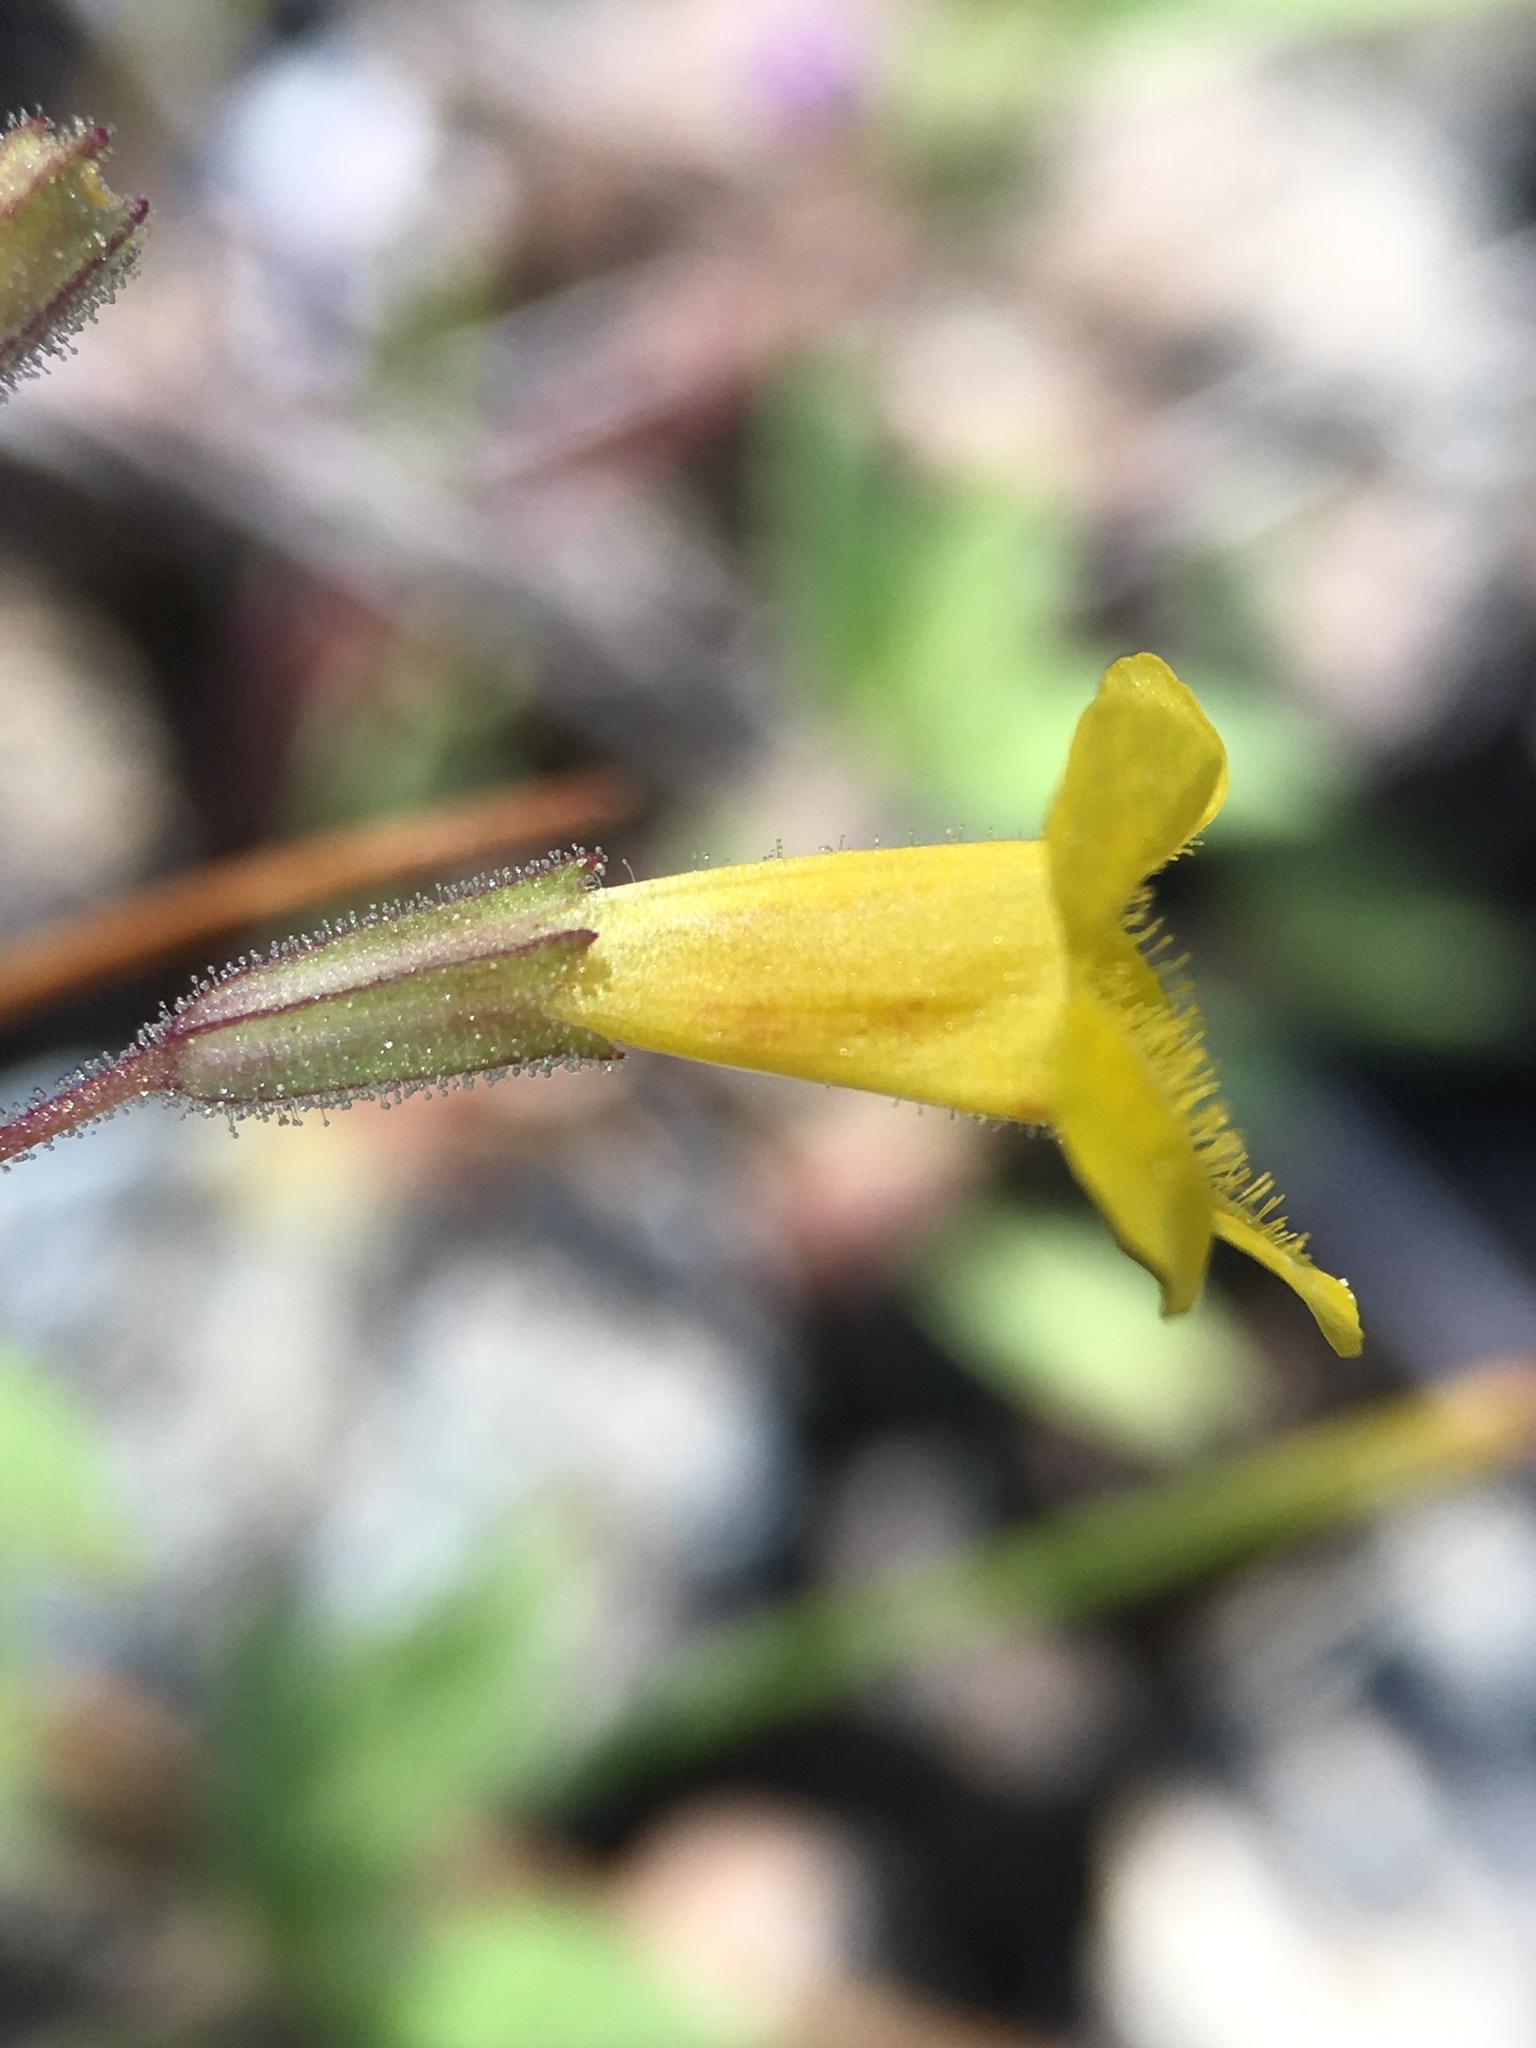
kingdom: Plantae
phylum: Tracheophyta
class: Magnoliopsida
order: Lamiales
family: Phrymaceae
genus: Erythranthe
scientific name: Erythranthe pulsiferae
